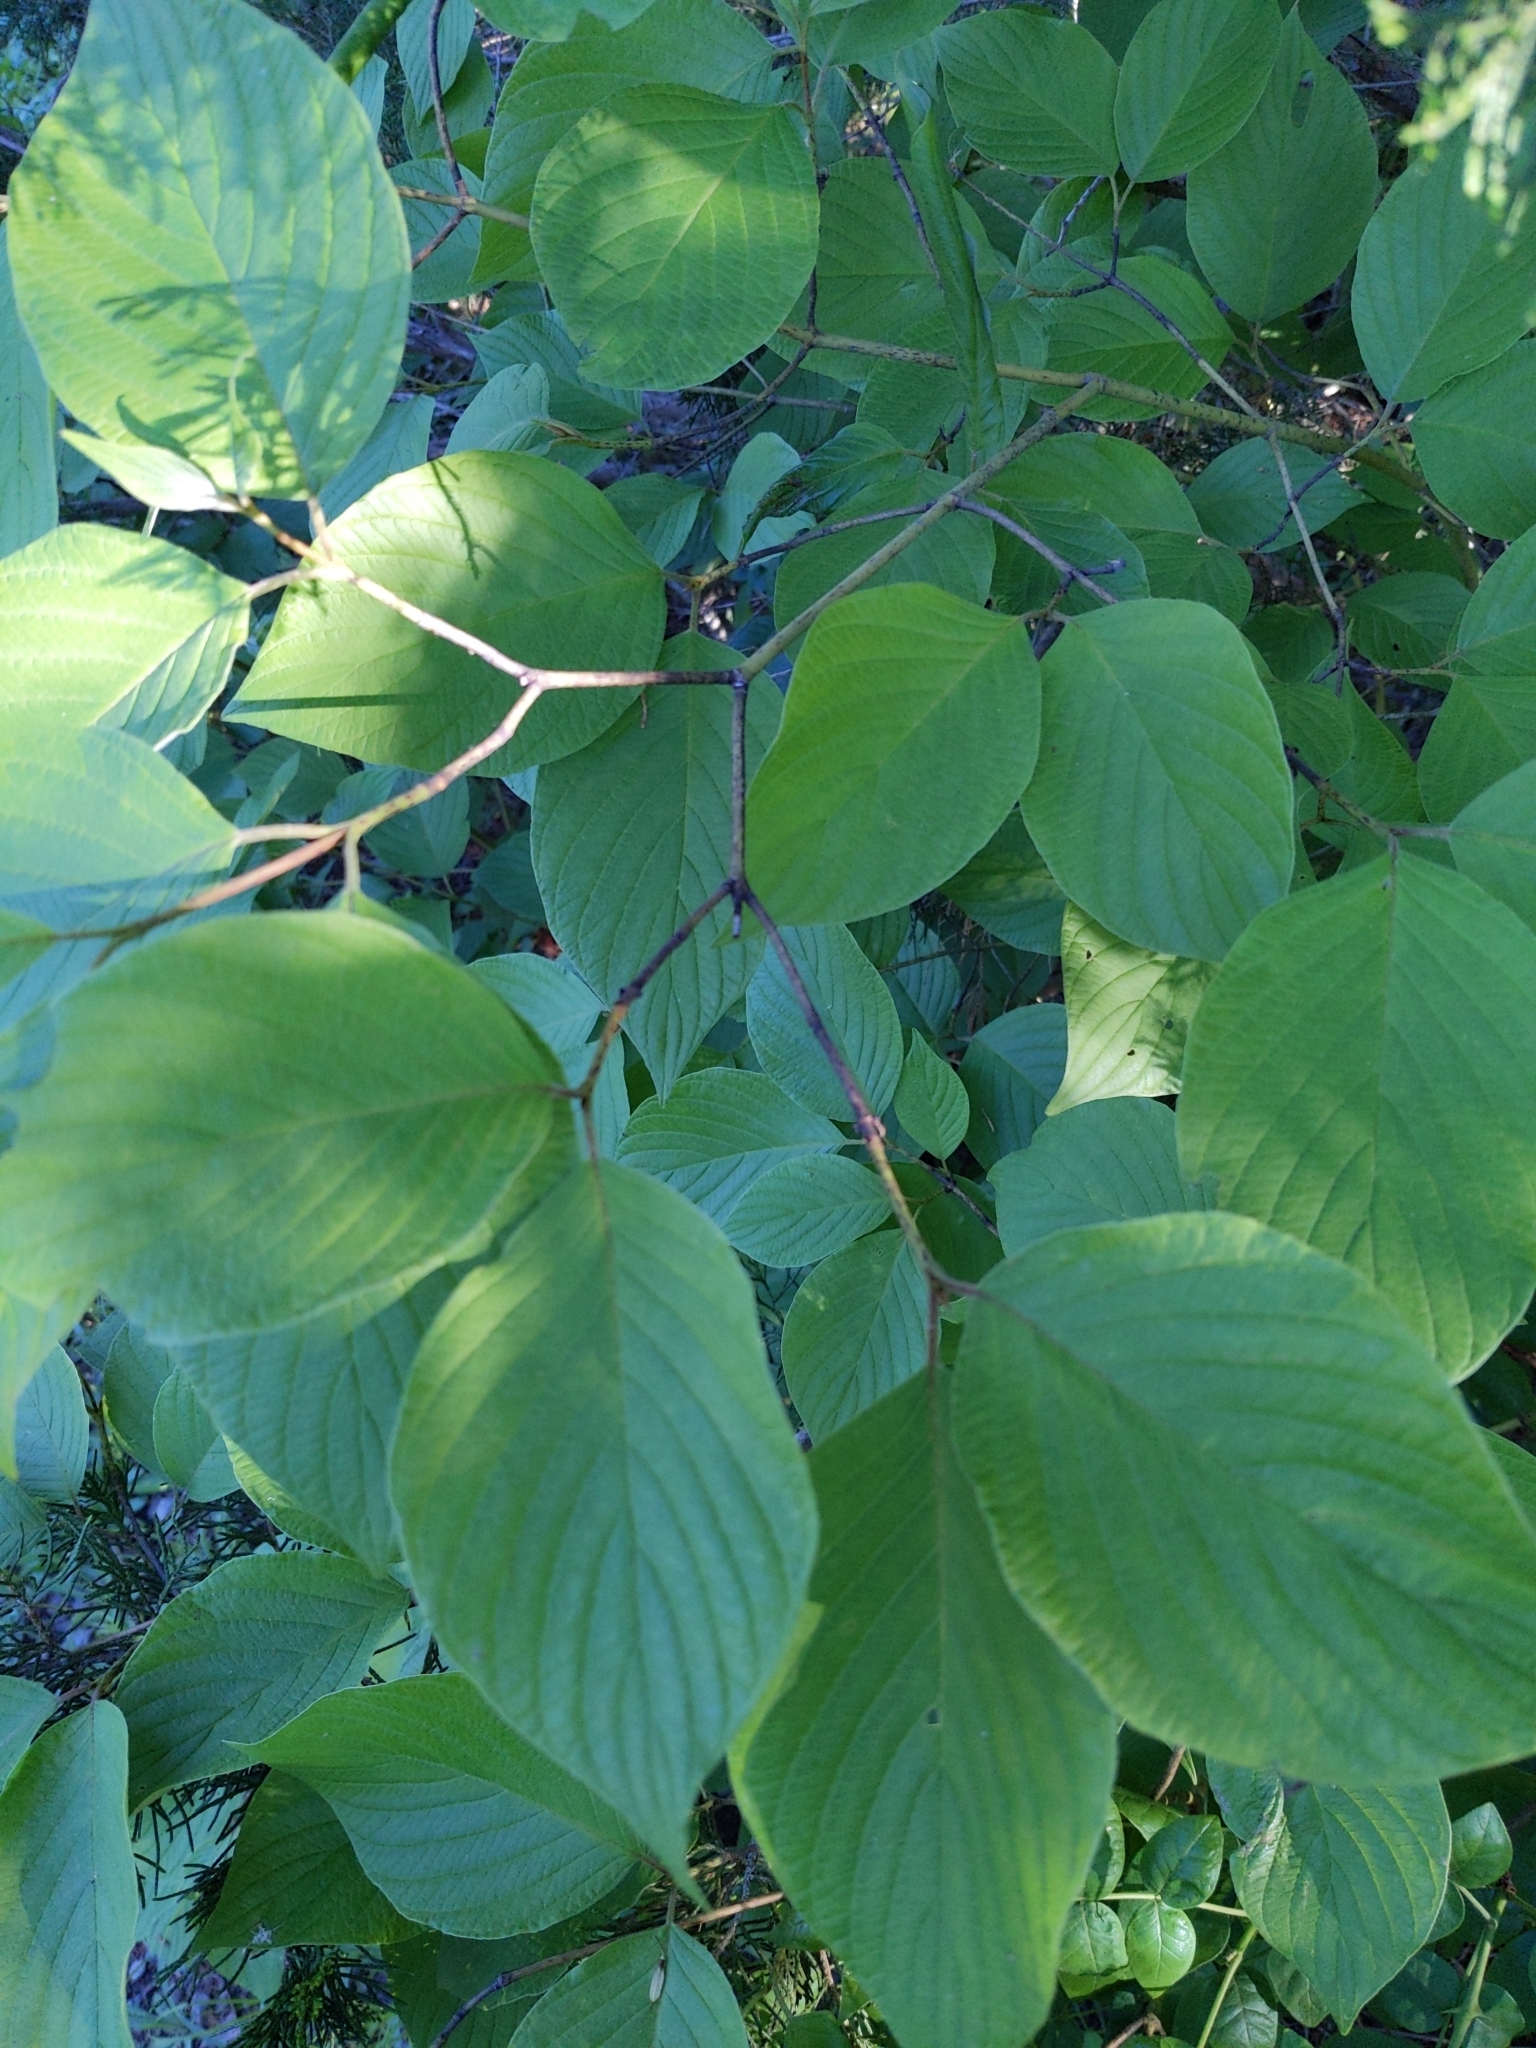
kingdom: Plantae
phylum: Tracheophyta
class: Magnoliopsida
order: Cornales
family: Cornaceae
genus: Cornus
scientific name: Cornus rugosa
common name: Round-leaf dogwood
